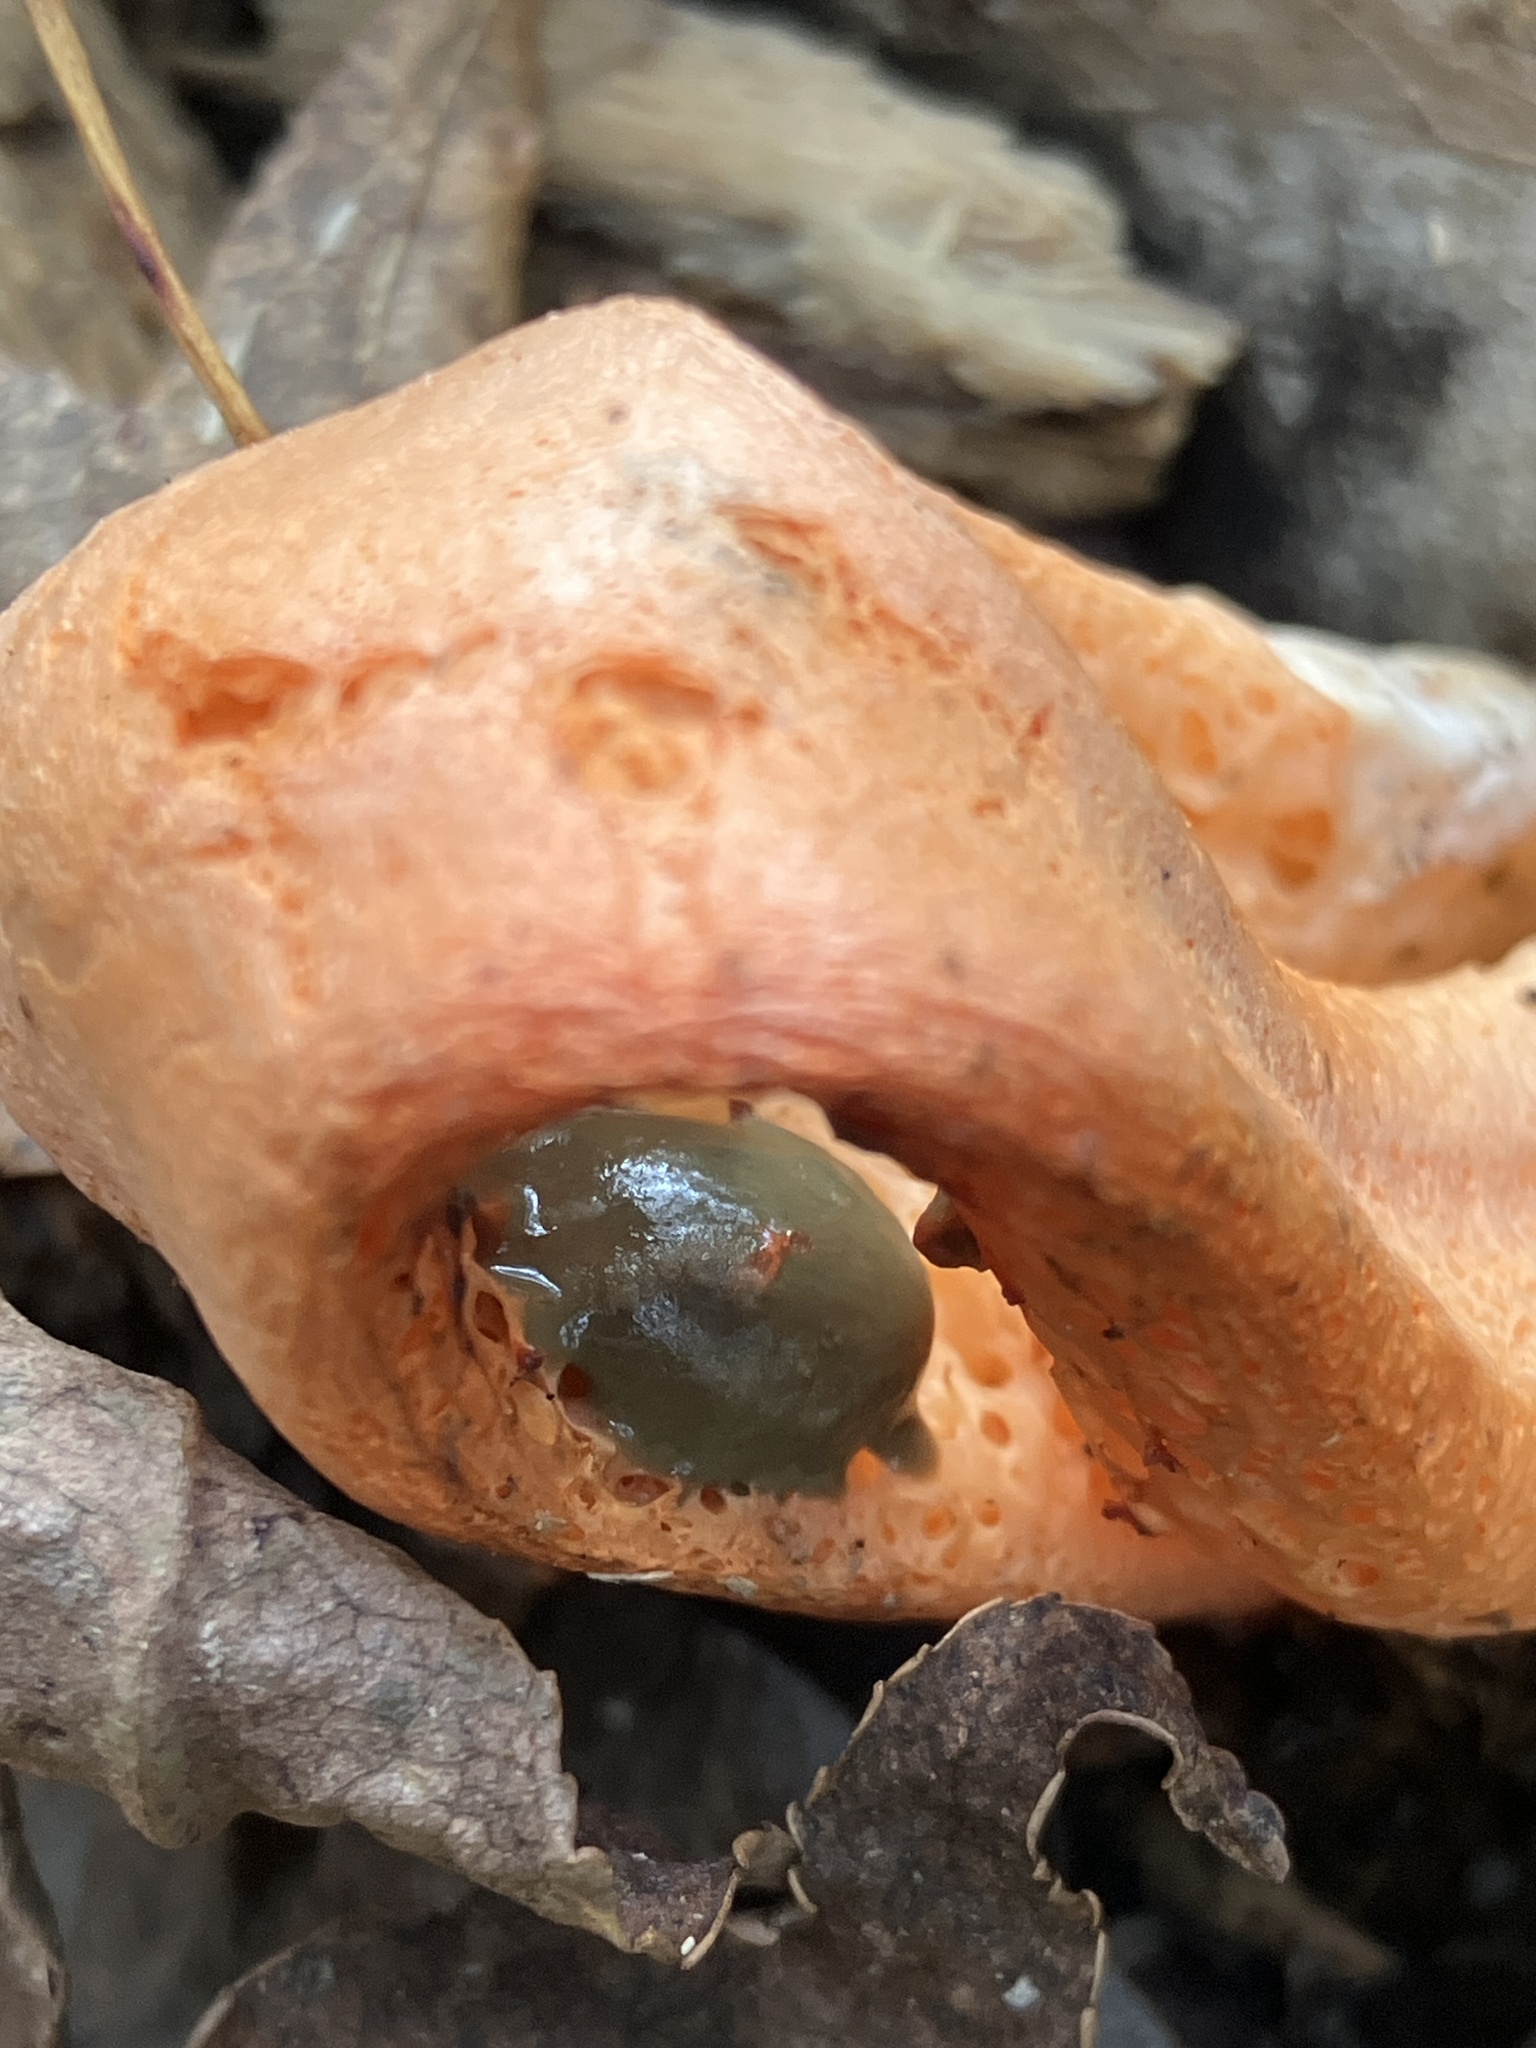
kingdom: Fungi
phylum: Basidiomycota
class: Agaricomycetes
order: Phallales
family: Phallaceae
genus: Clathrus
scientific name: Clathrus columnatus
